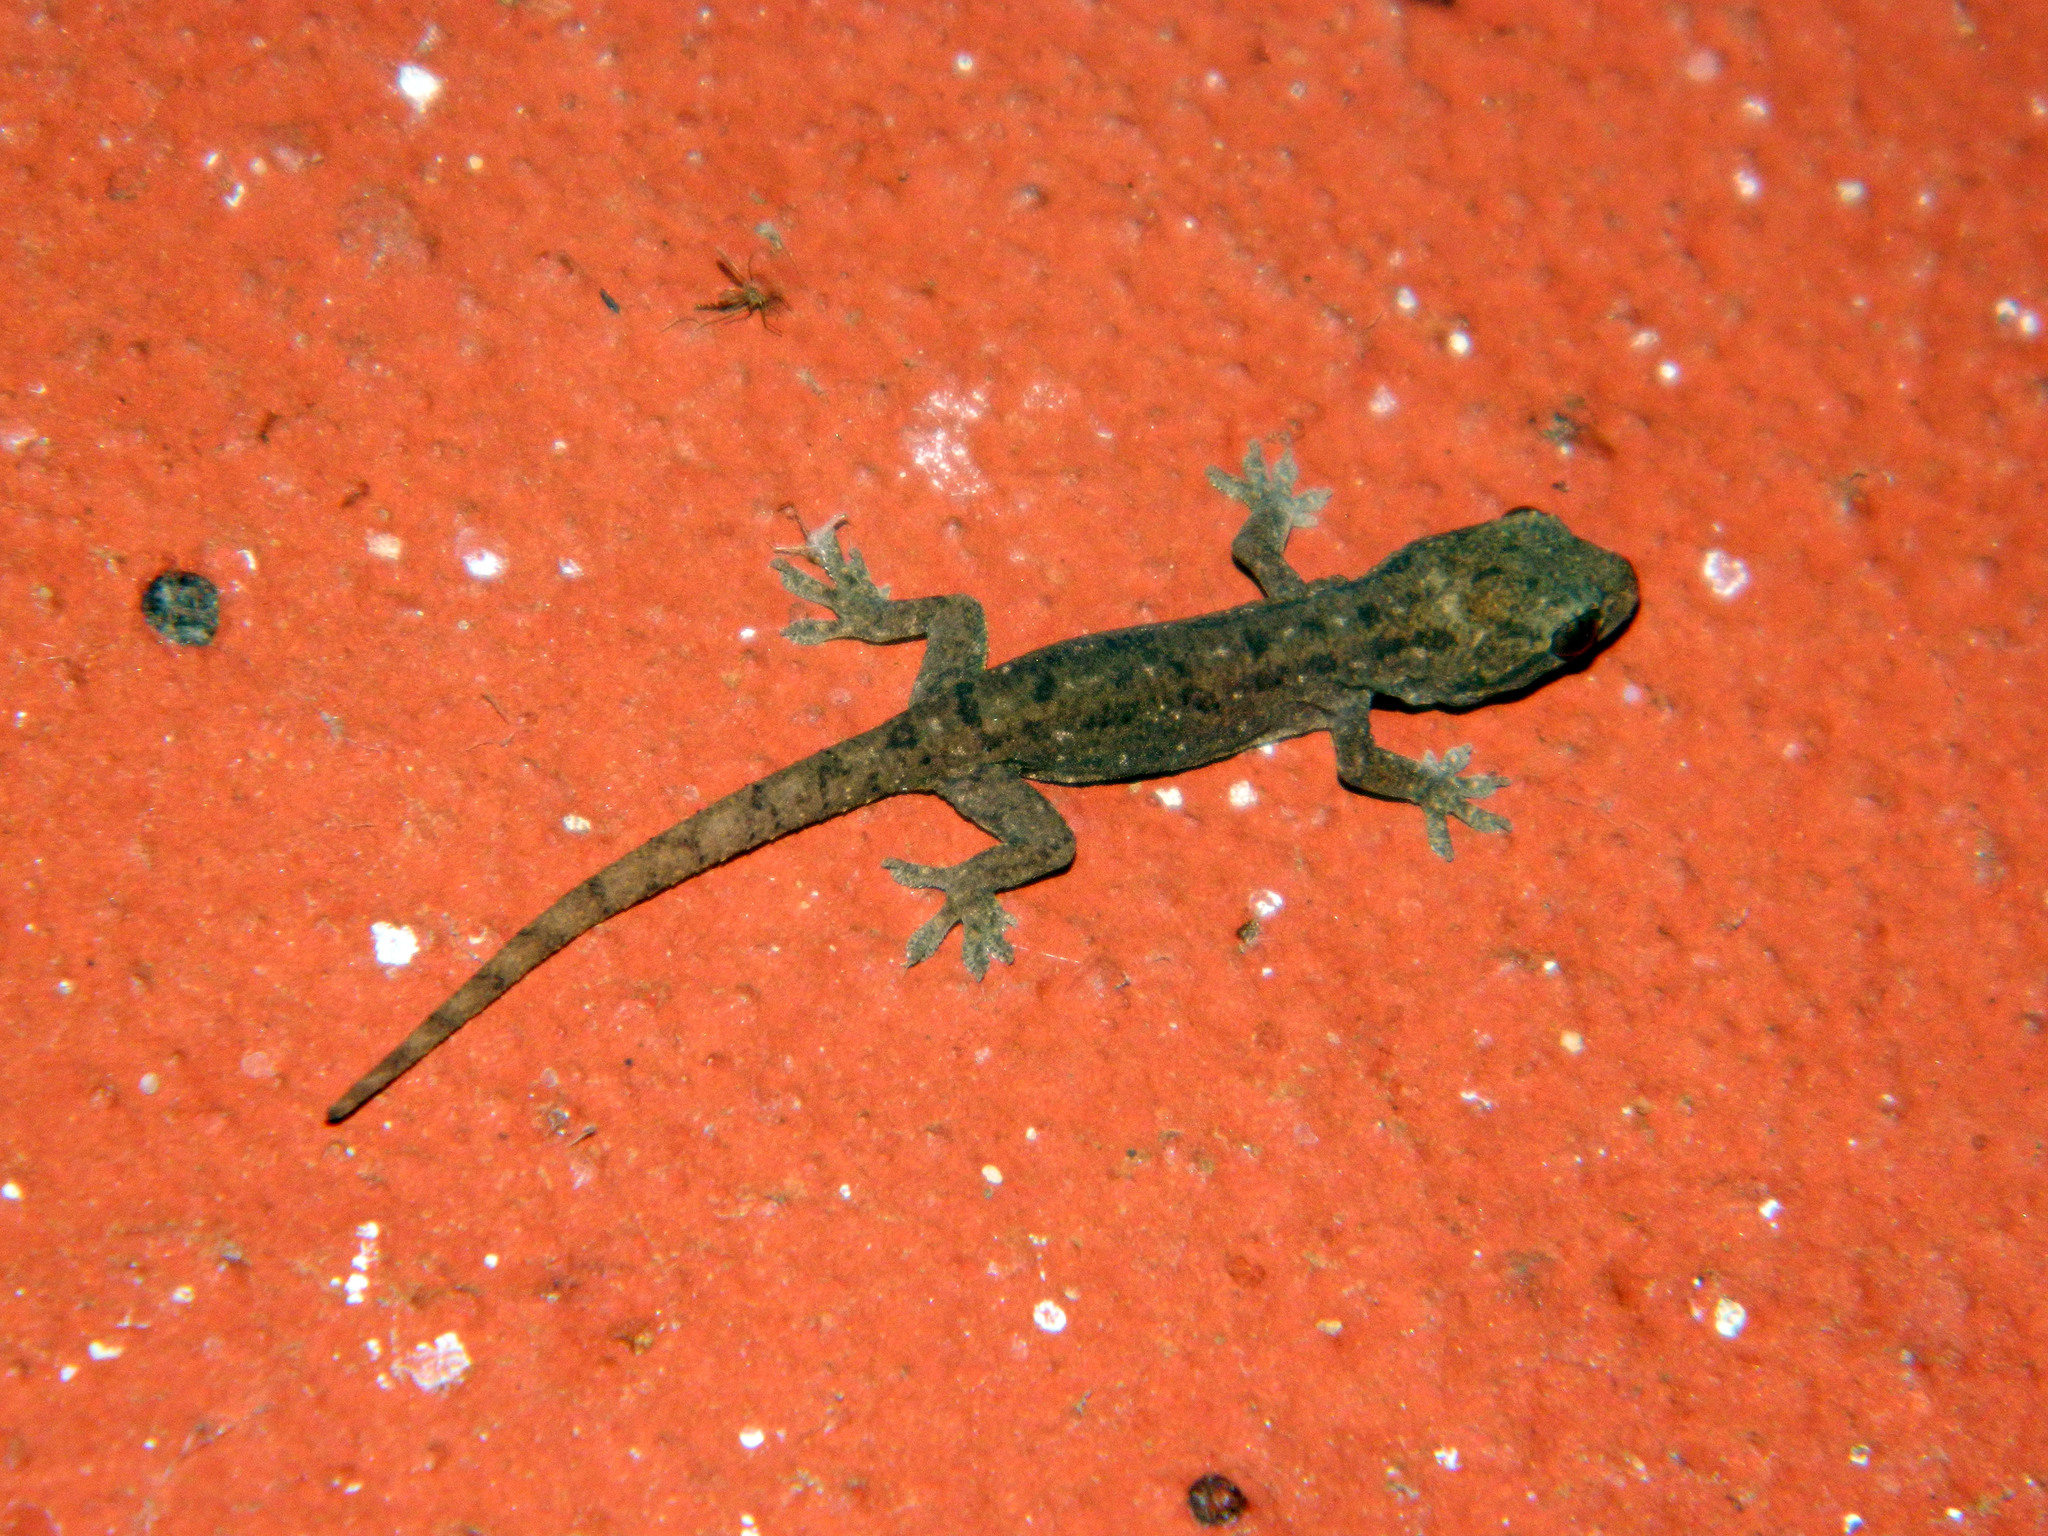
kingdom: Animalia
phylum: Chordata
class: Squamata
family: Gekkonidae
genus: Hemidactylus
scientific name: Hemidactylus frenatus
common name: Common house gecko
